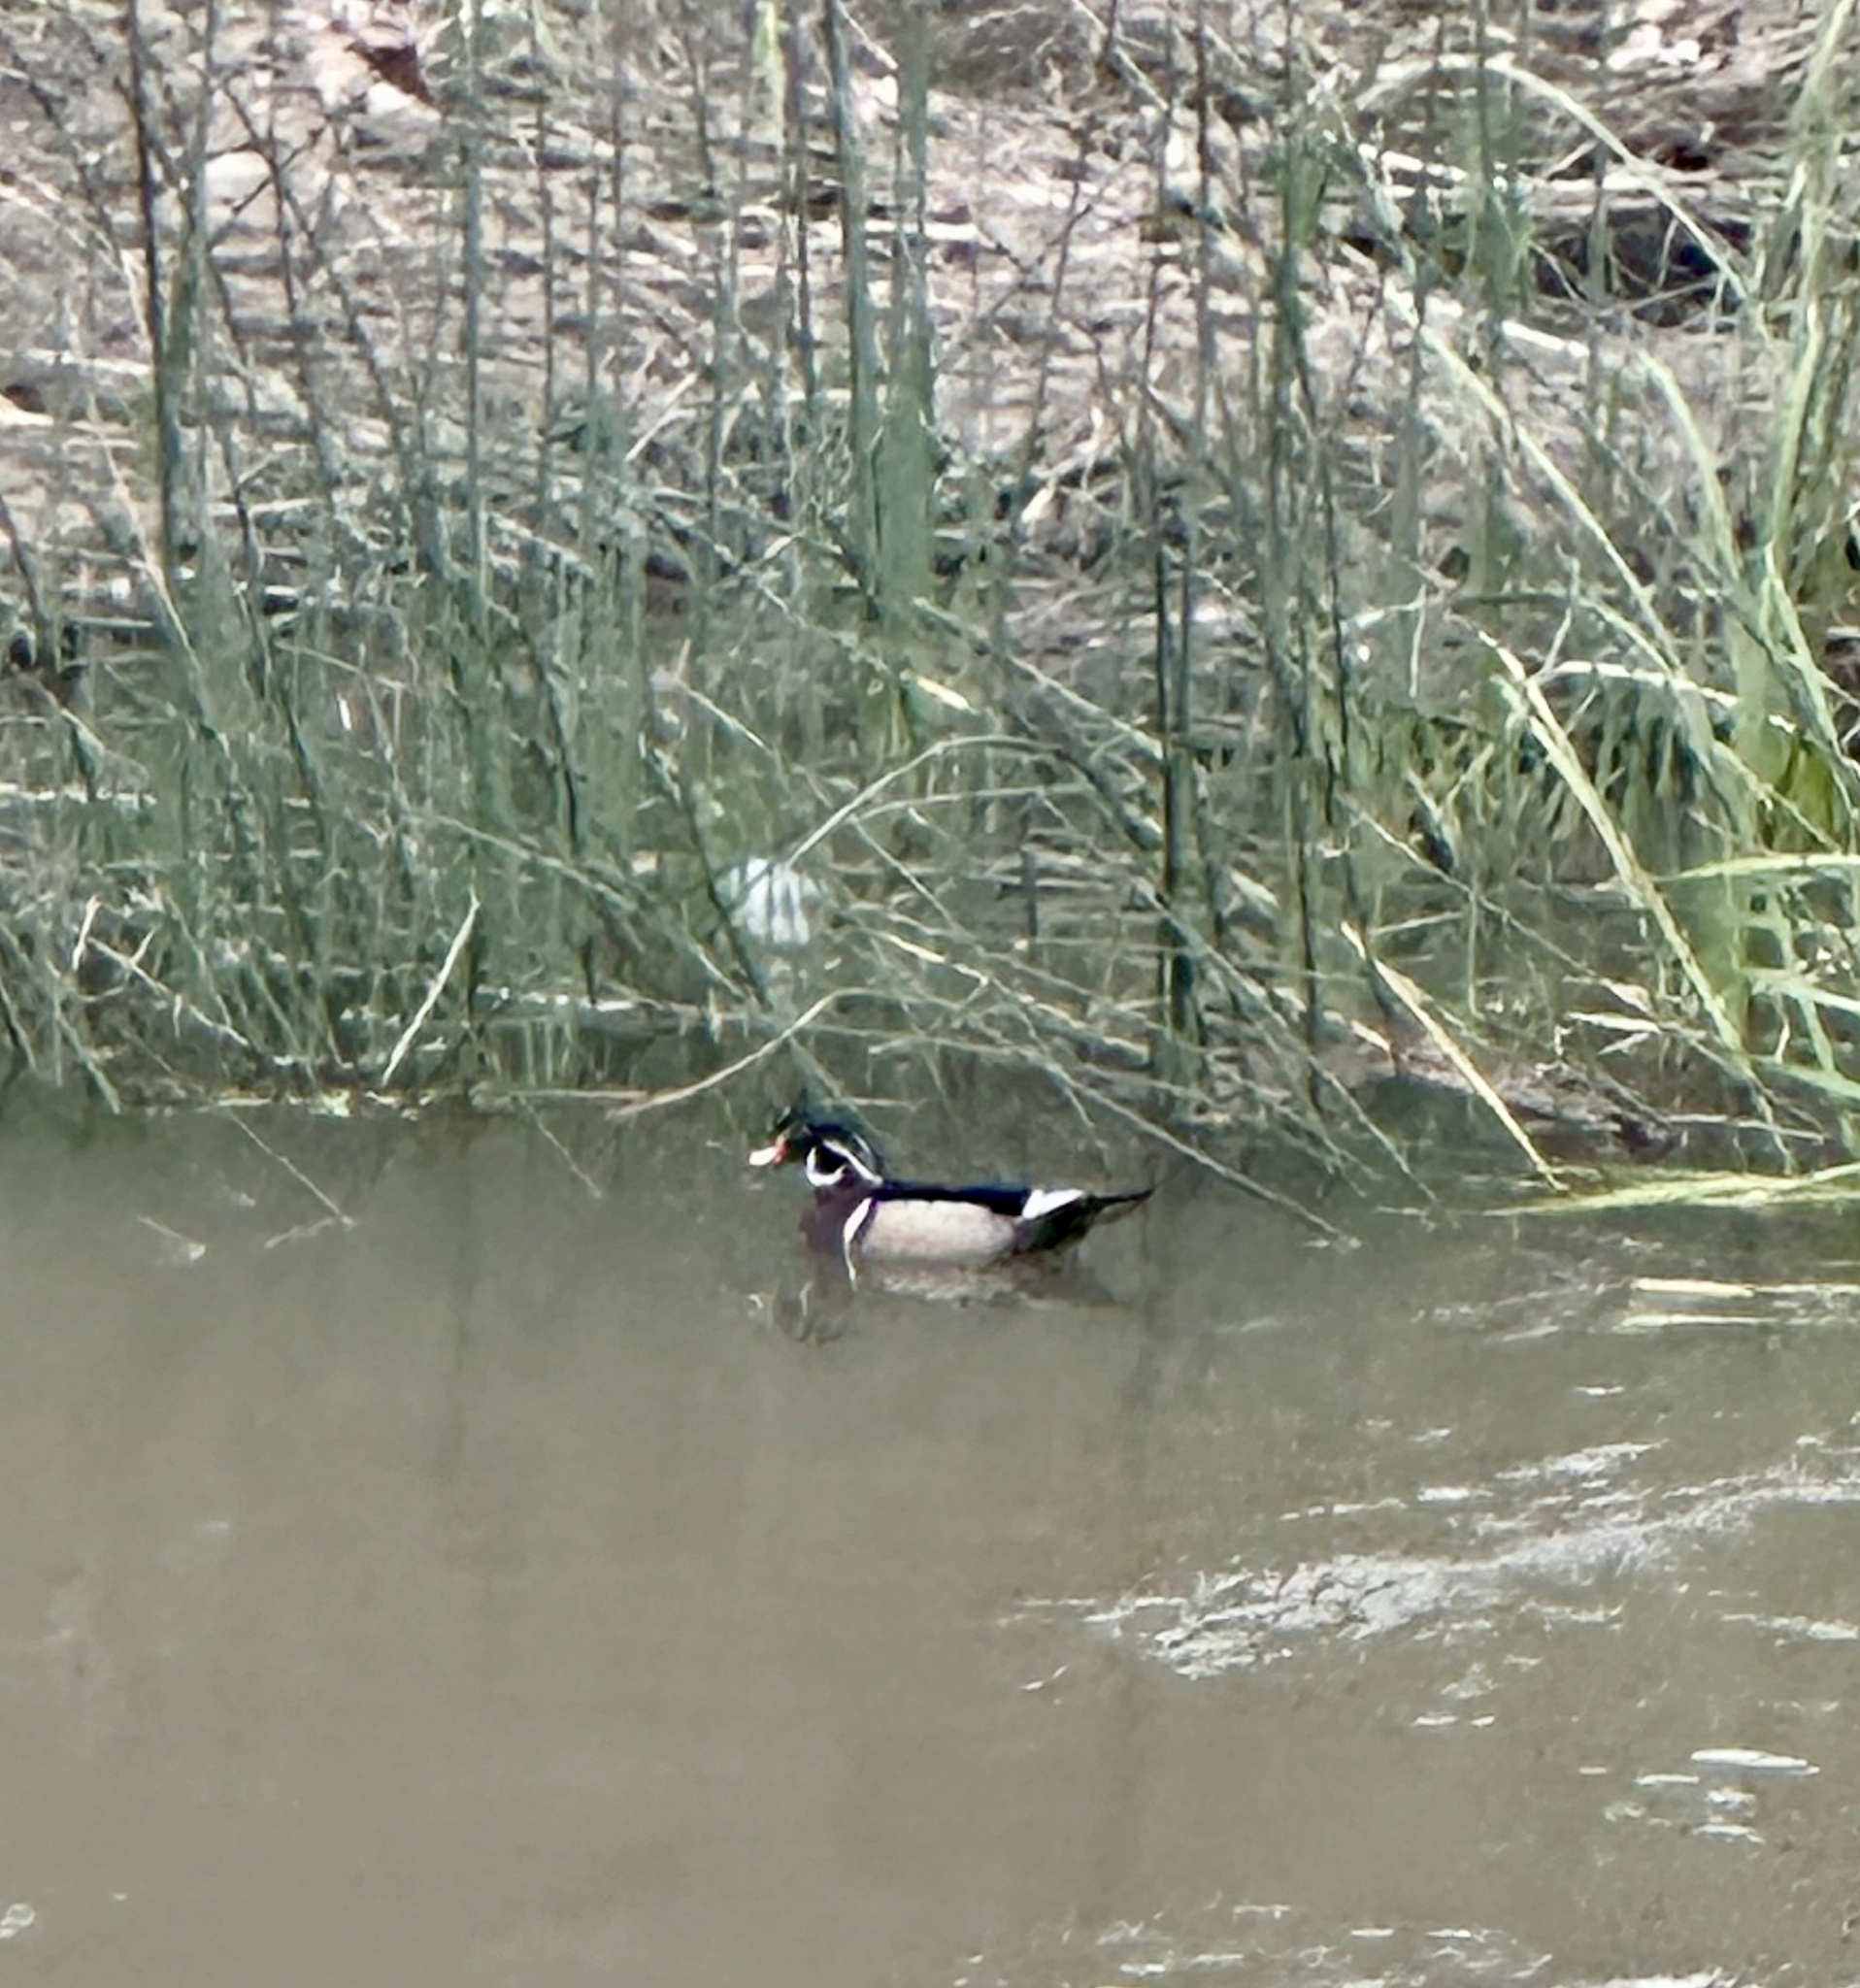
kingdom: Animalia
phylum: Chordata
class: Aves
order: Anseriformes
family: Anatidae
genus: Aix
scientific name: Aix sponsa
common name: Wood duck
